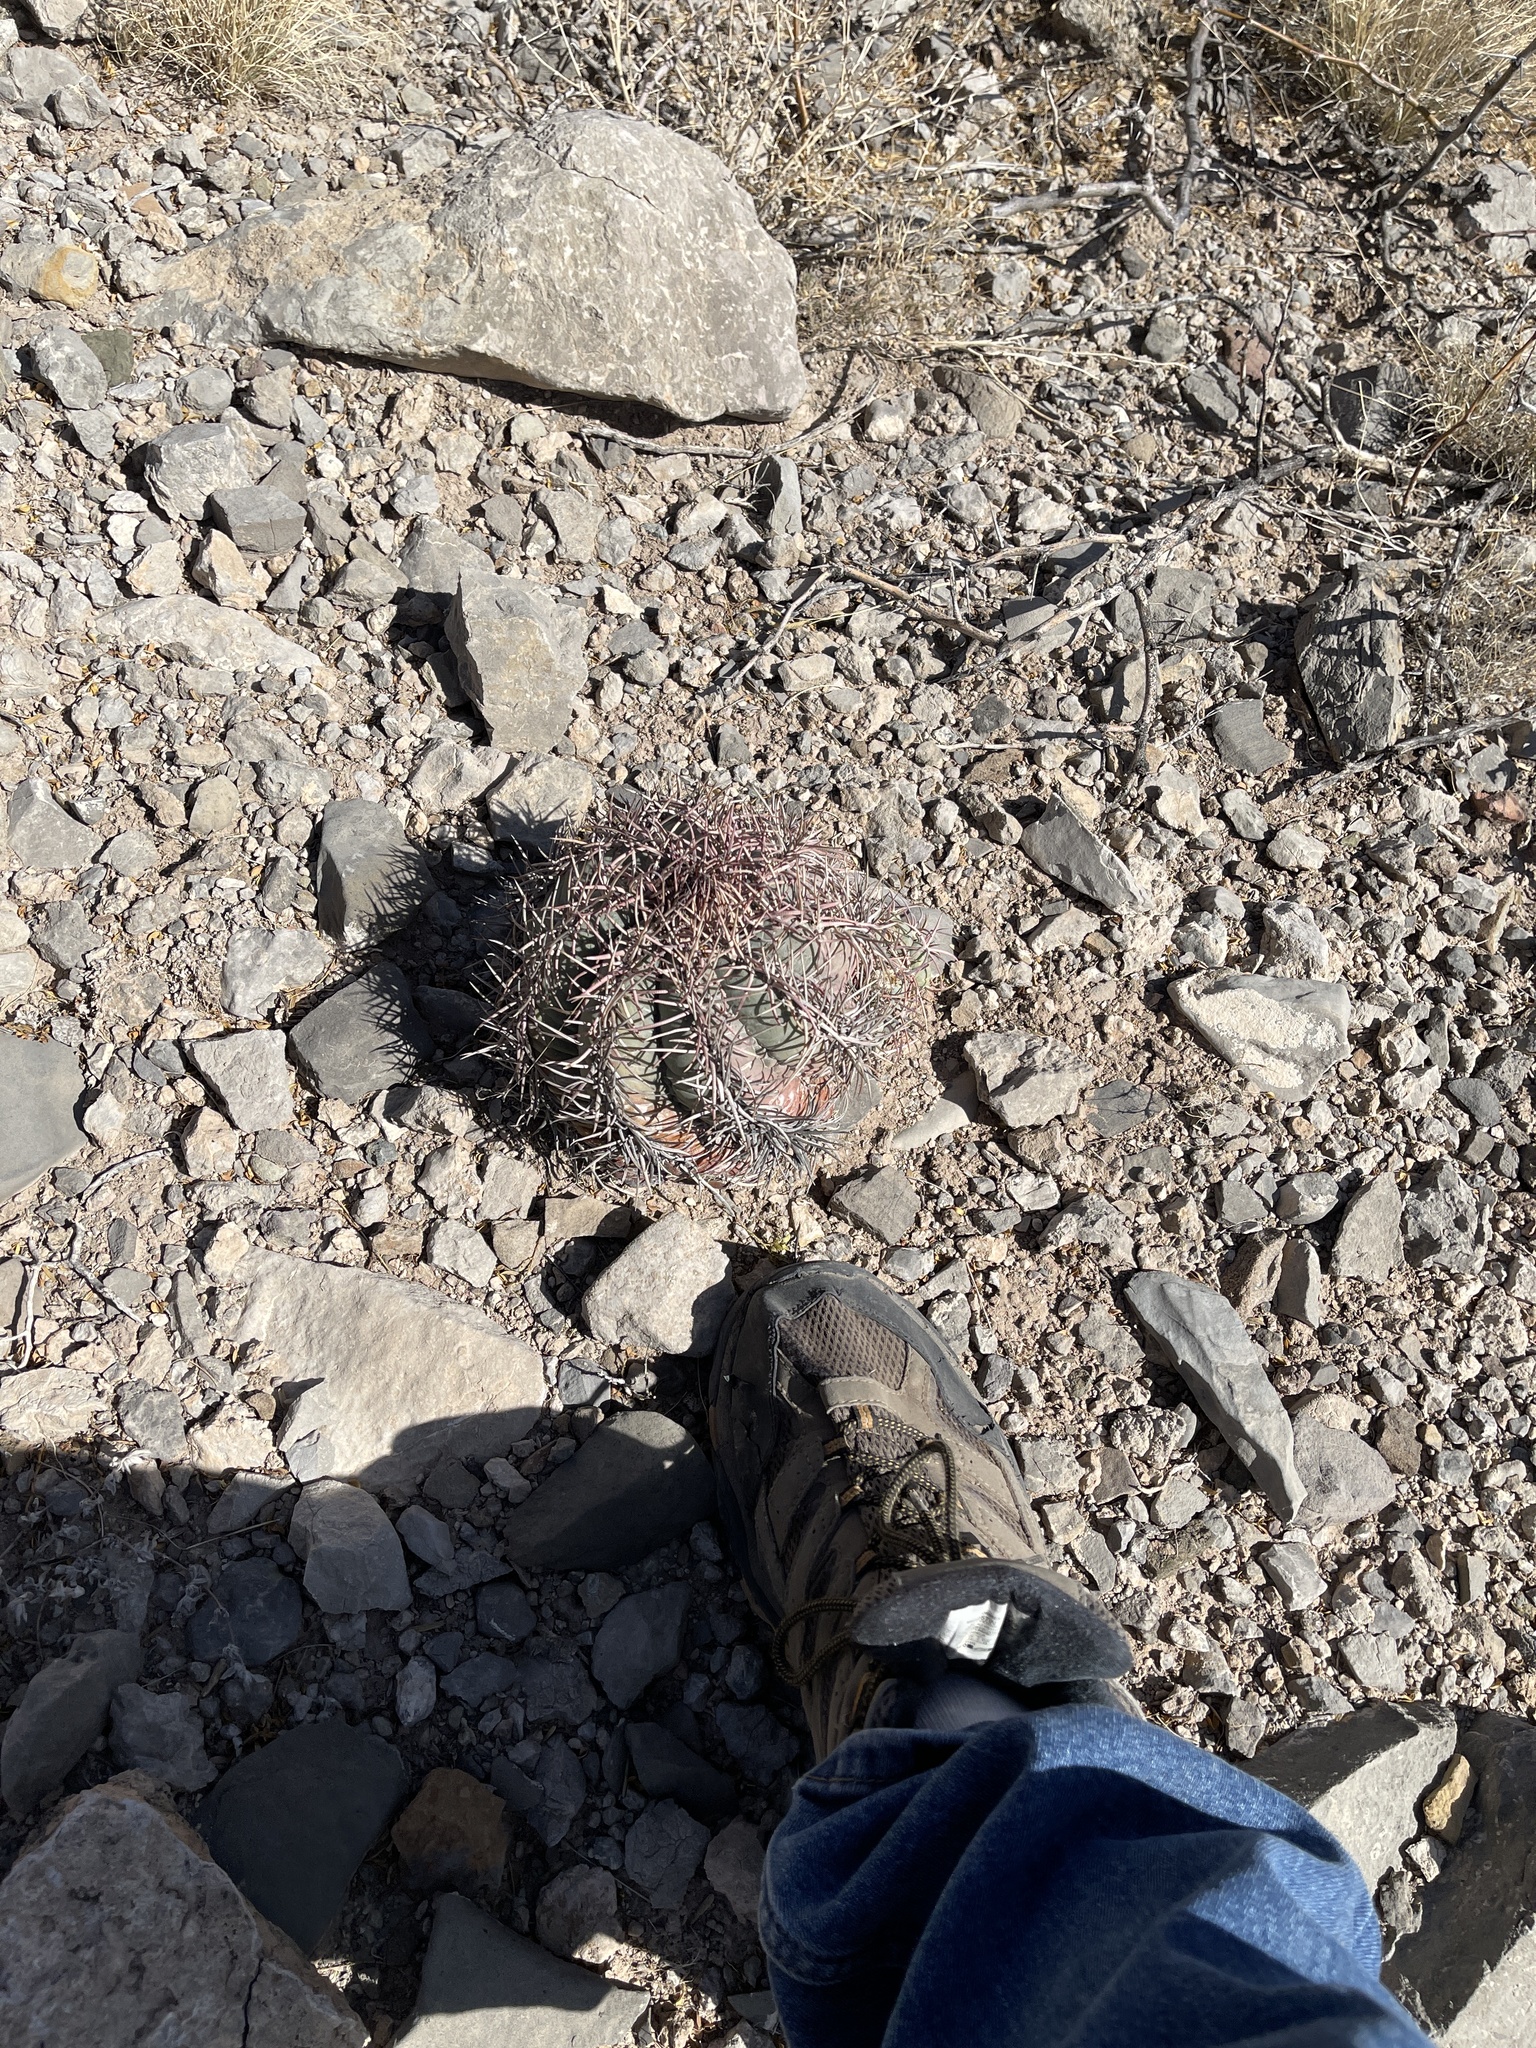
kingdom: Plantae
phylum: Tracheophyta
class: Magnoliopsida
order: Caryophyllales
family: Cactaceae
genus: Echinocactus
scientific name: Echinocactus horizonthalonius
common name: Devilshead
